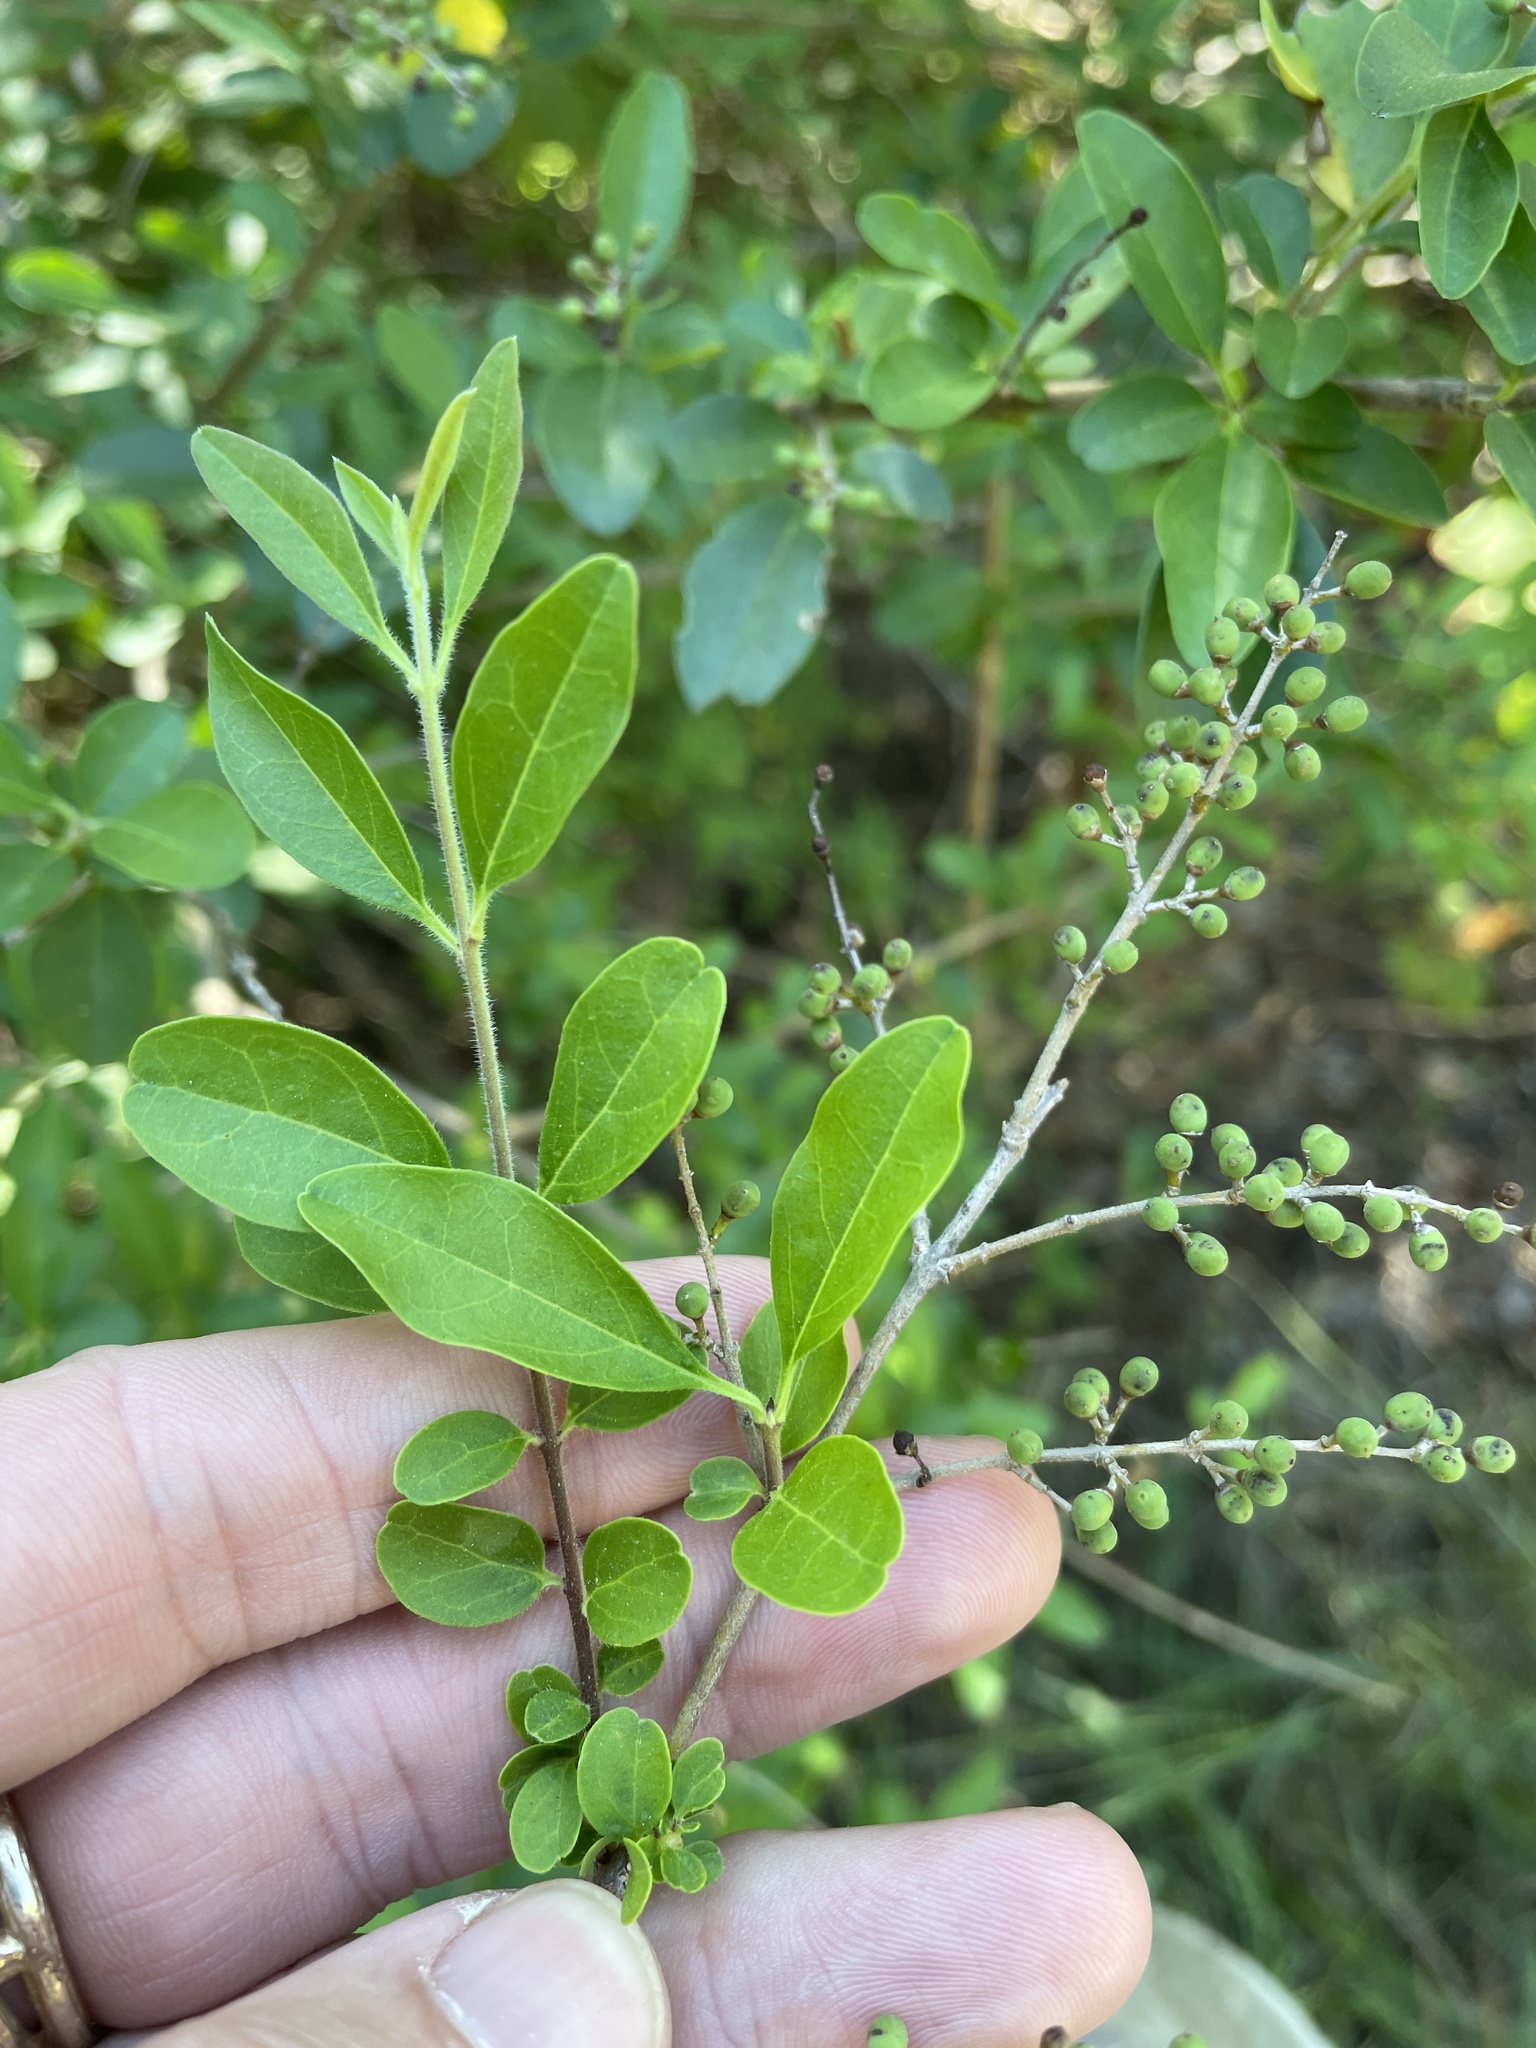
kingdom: Plantae
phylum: Tracheophyta
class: Magnoliopsida
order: Lamiales
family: Oleaceae
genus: Ligustrum
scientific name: Ligustrum sinense
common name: Chinese privet
